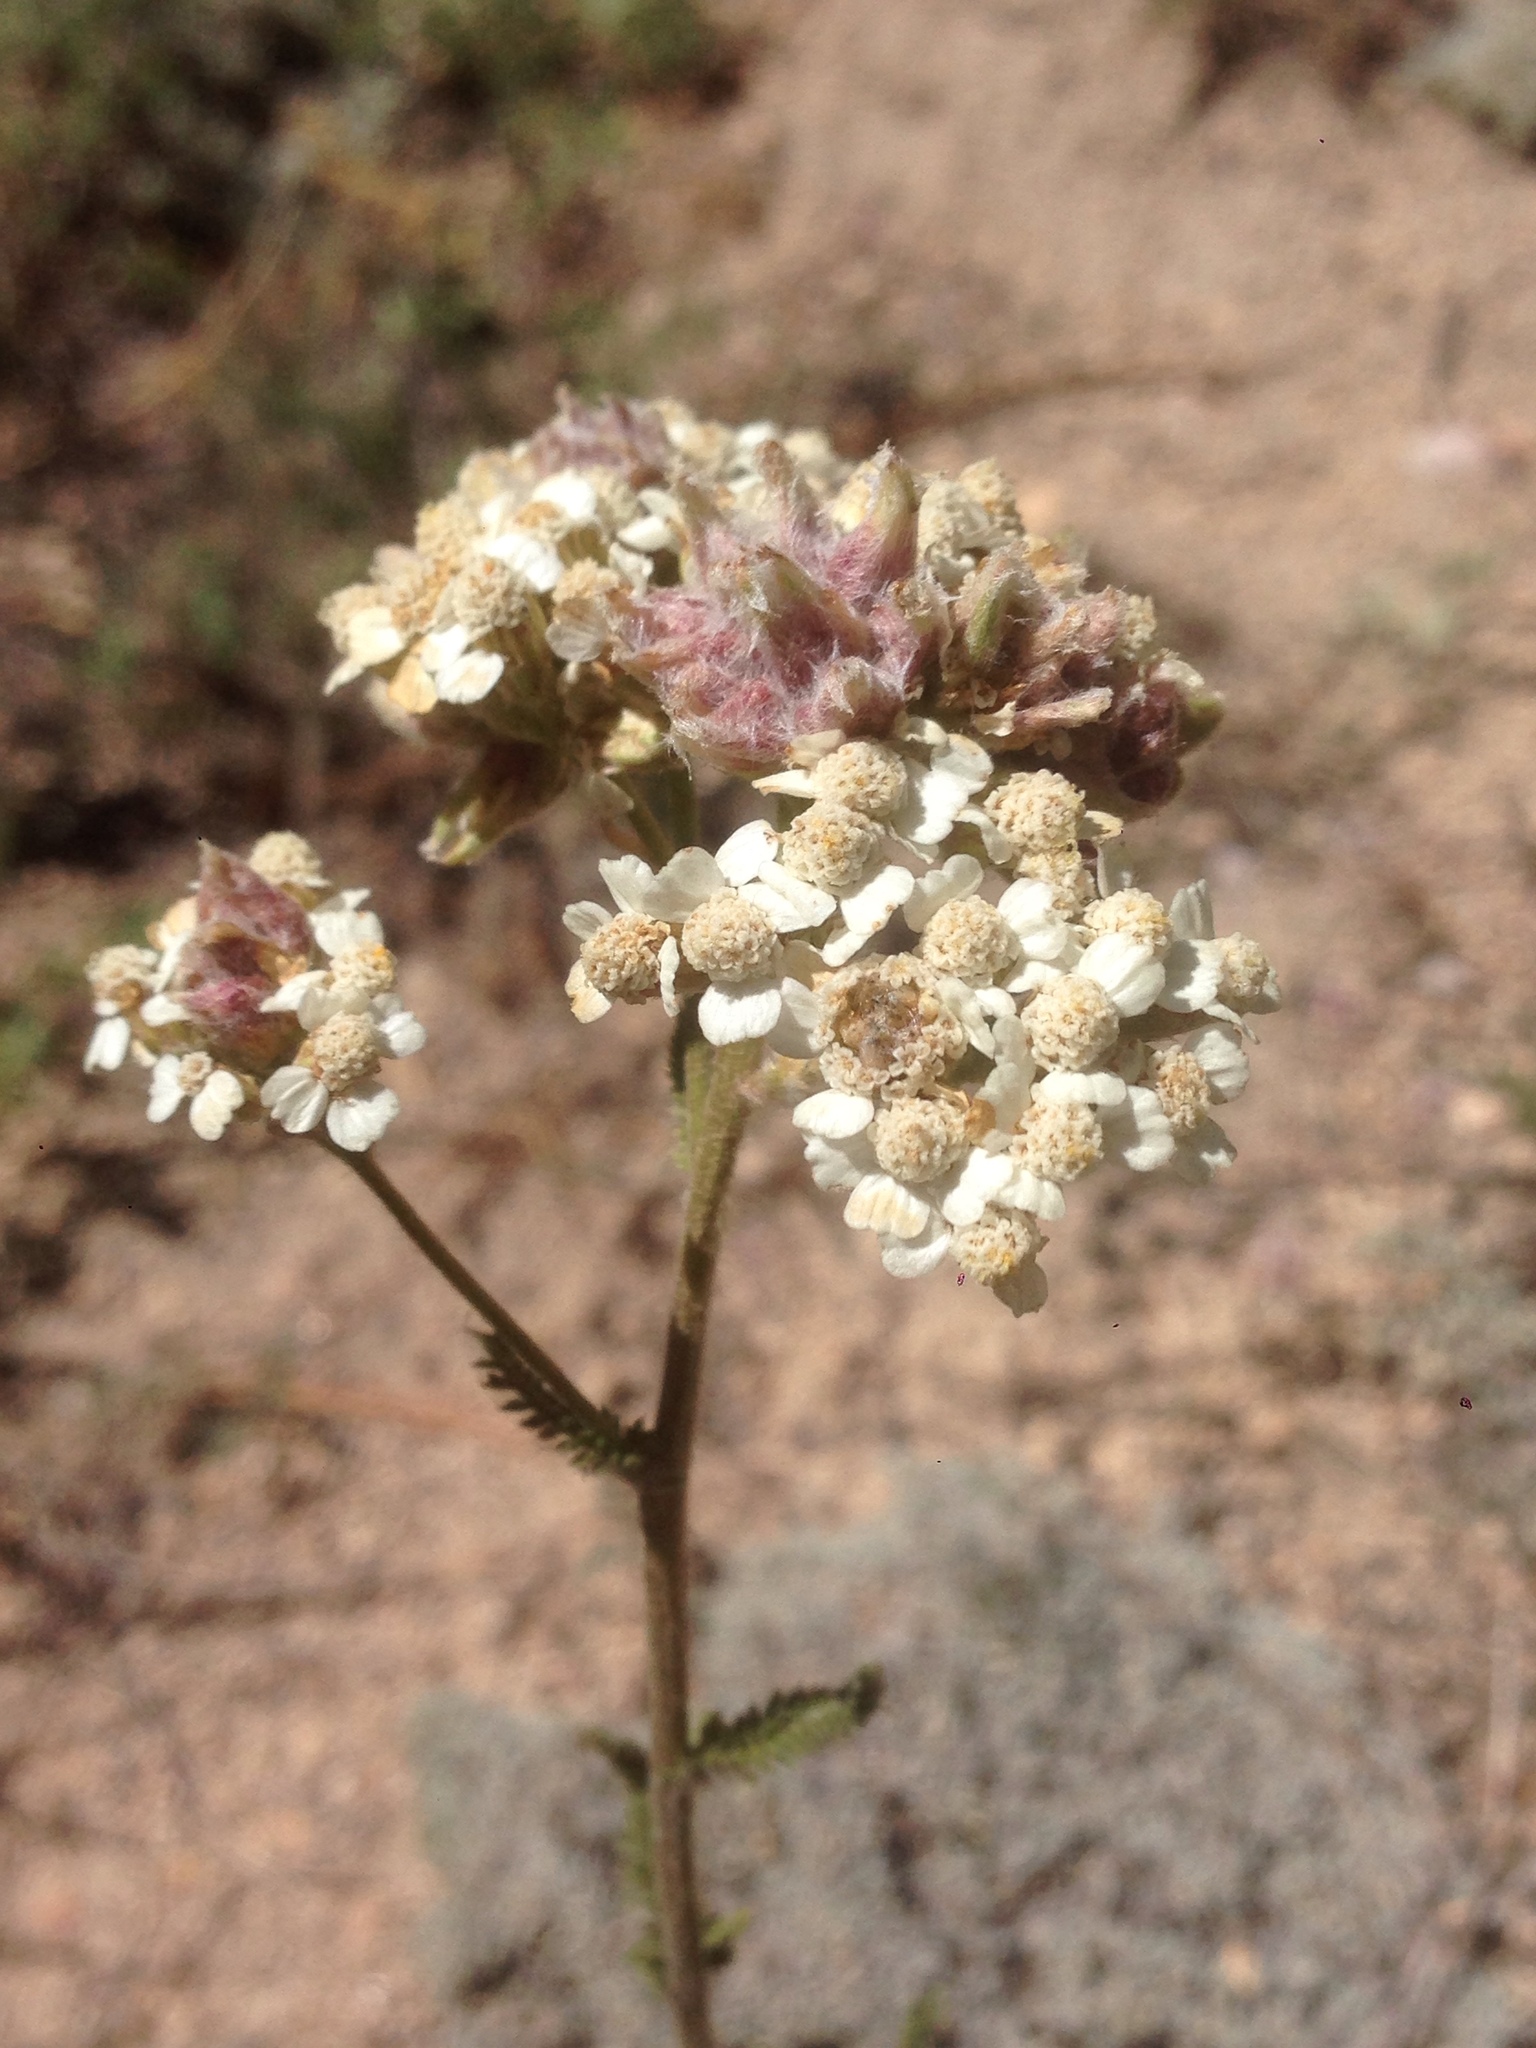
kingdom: Plantae
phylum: Tracheophyta
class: Magnoliopsida
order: Asterales
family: Asteraceae
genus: Achillea
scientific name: Achillea millefolium
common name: Yarrow
